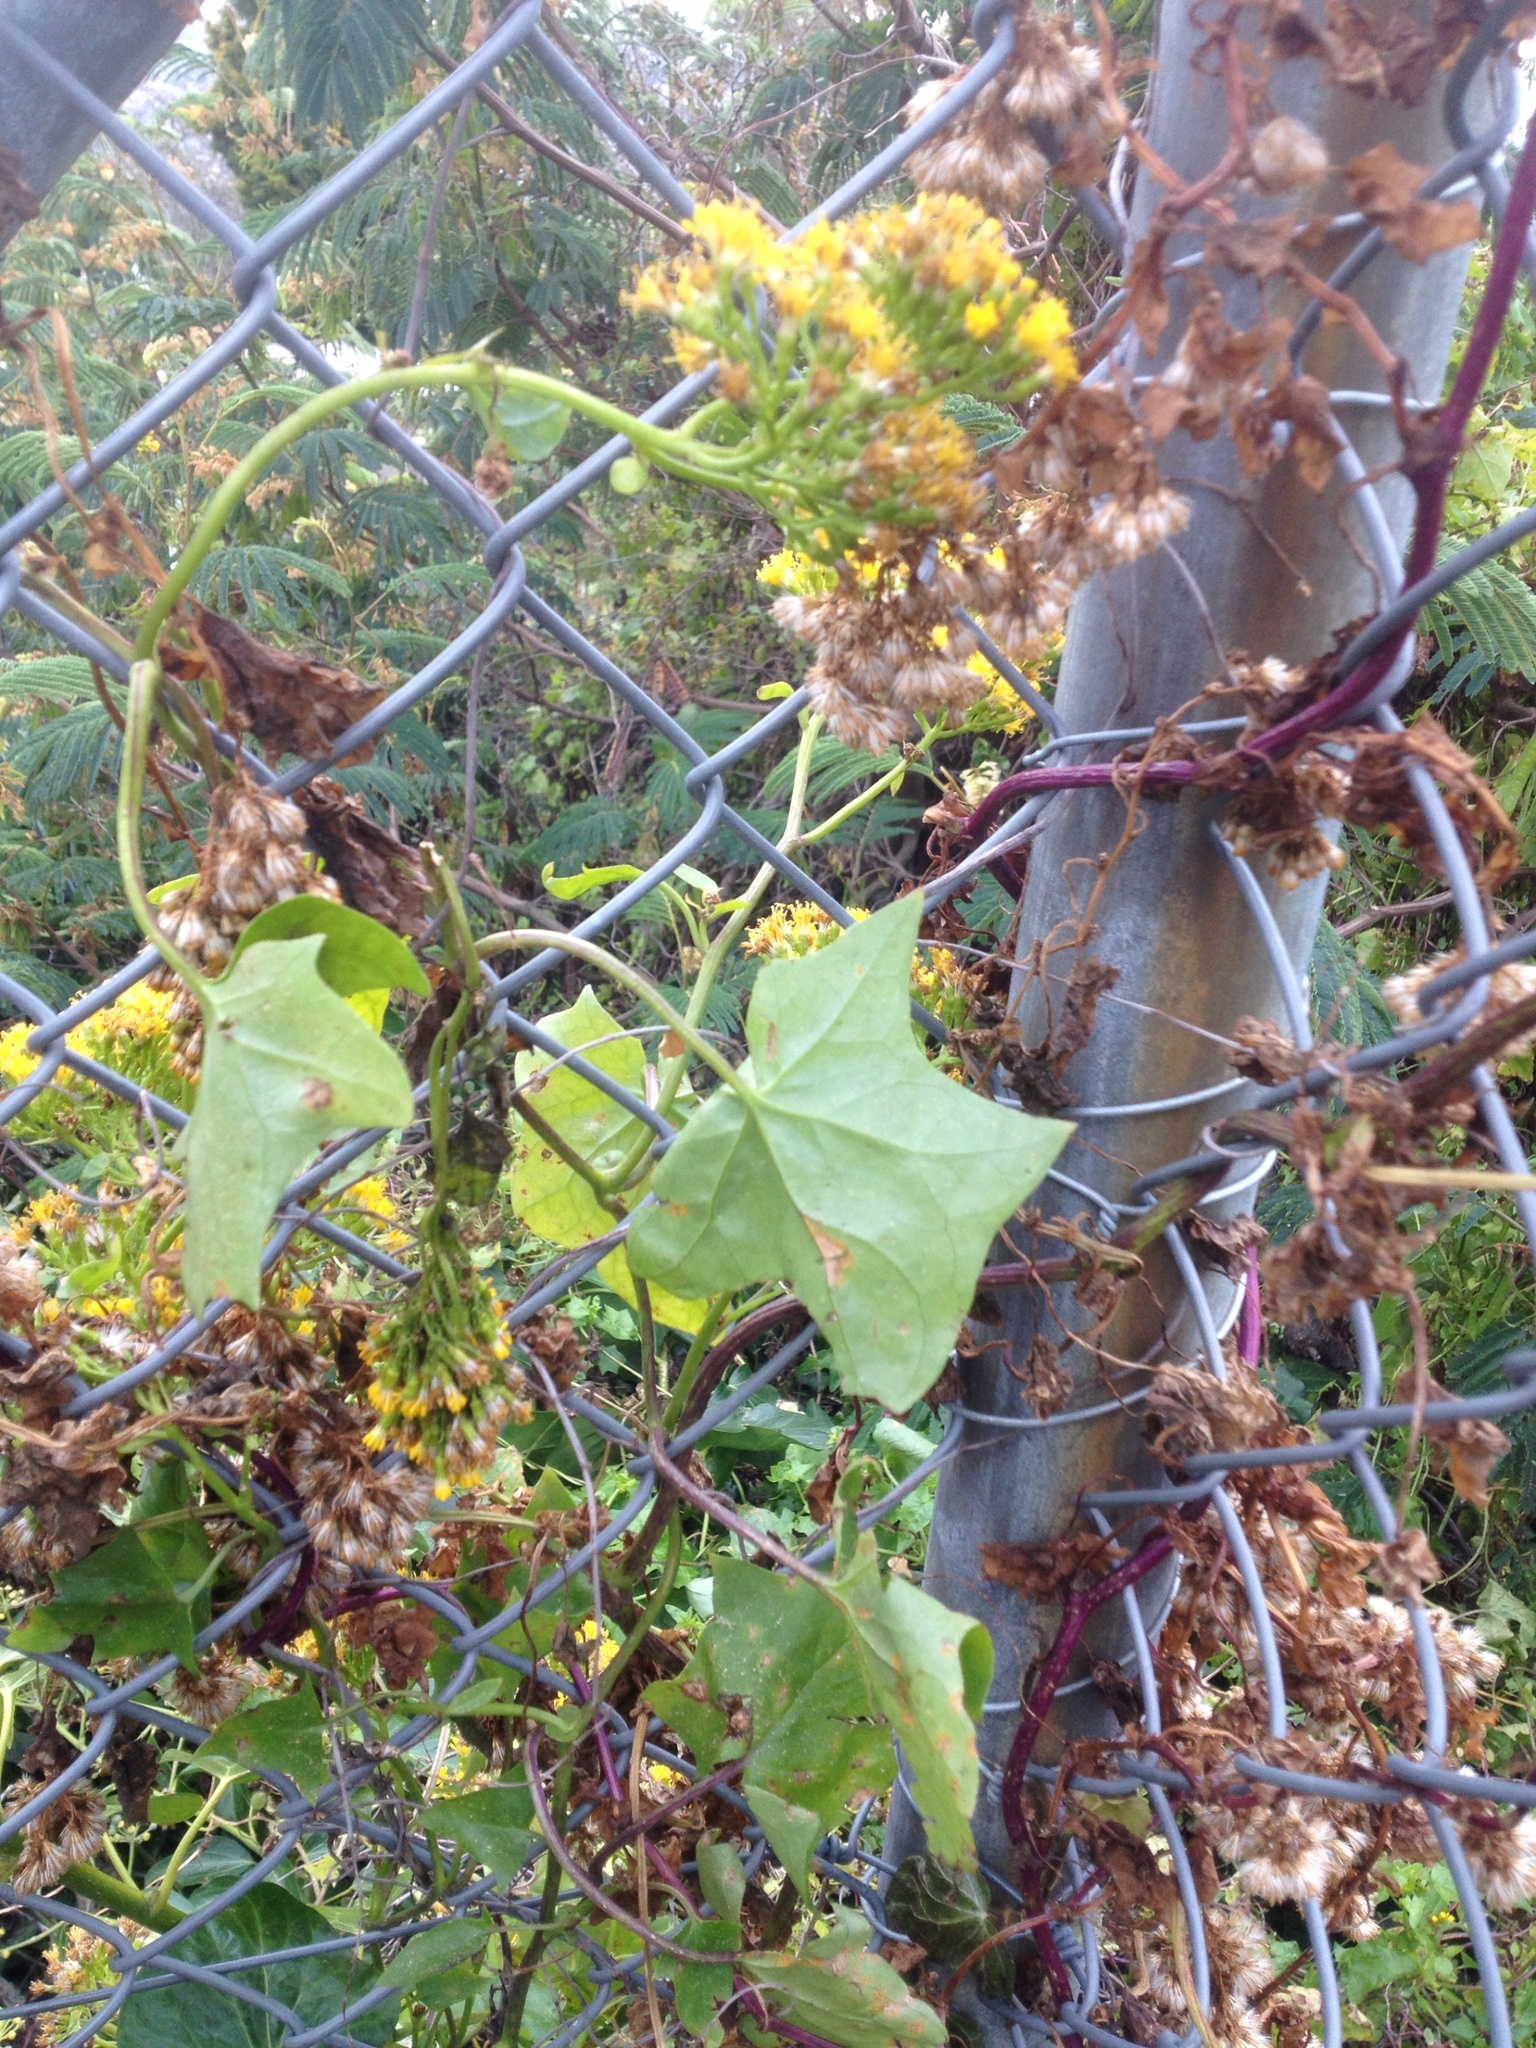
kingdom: Plantae
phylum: Tracheophyta
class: Magnoliopsida
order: Asterales
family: Asteraceae
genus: Delairea
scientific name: Delairea odorata
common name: Cape-ivy
